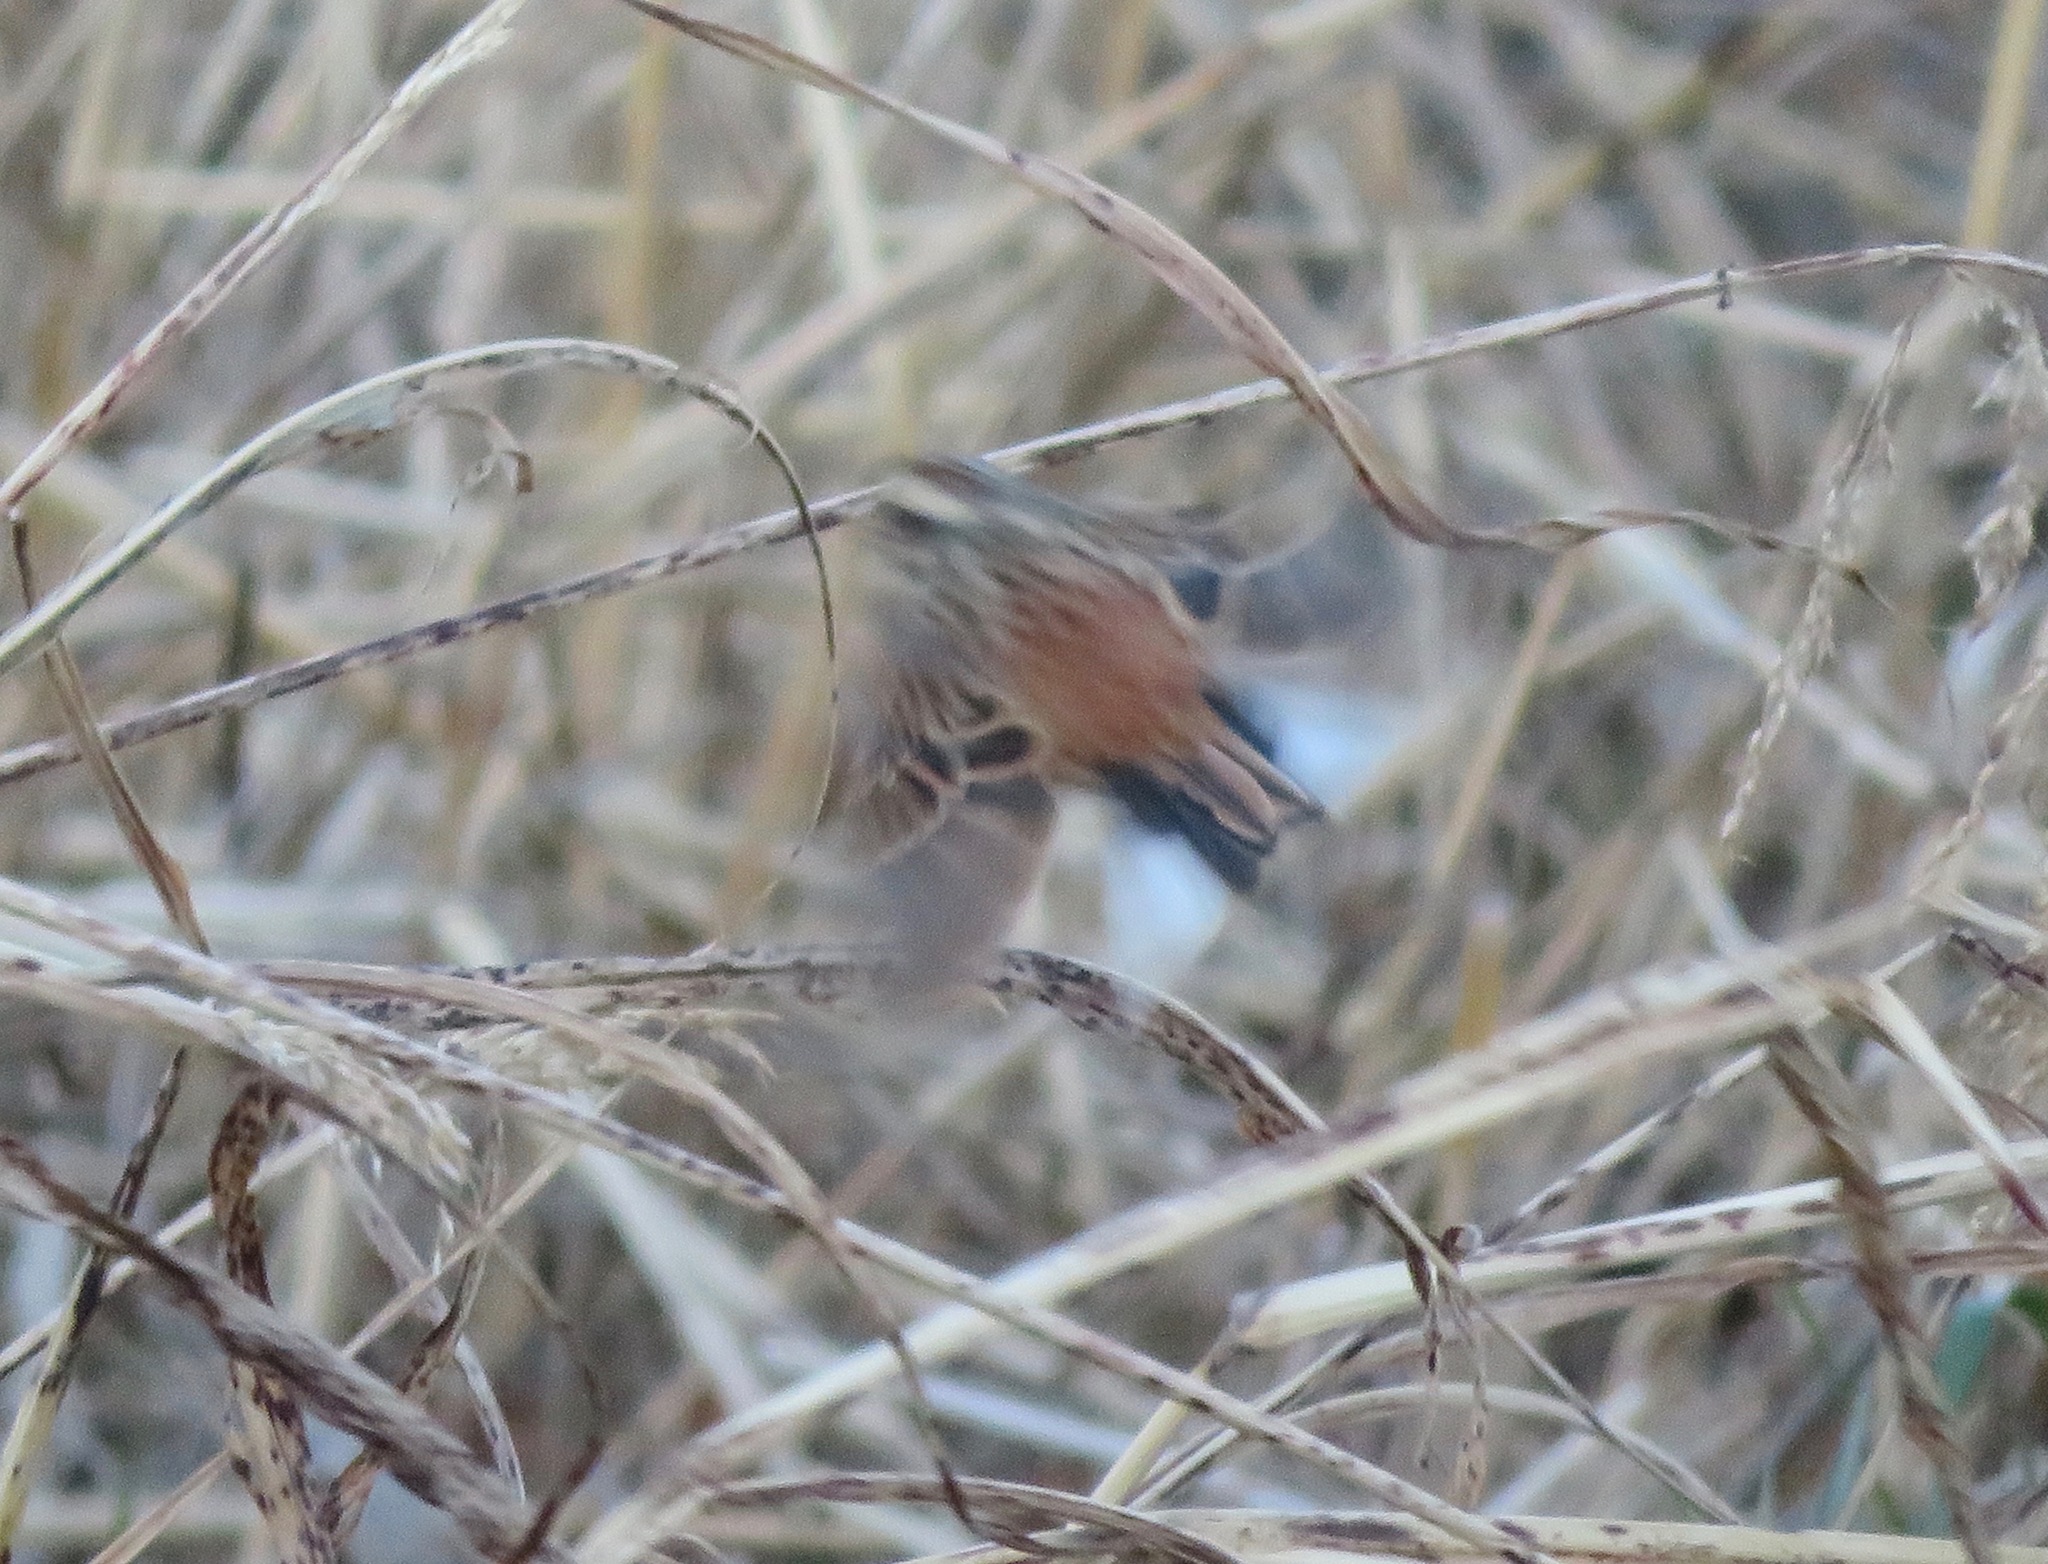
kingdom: Animalia
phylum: Chordata
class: Aves
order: Passeriformes
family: Emberizidae
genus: Emberiza
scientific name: Emberiza cioides
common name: Meadow bunting
